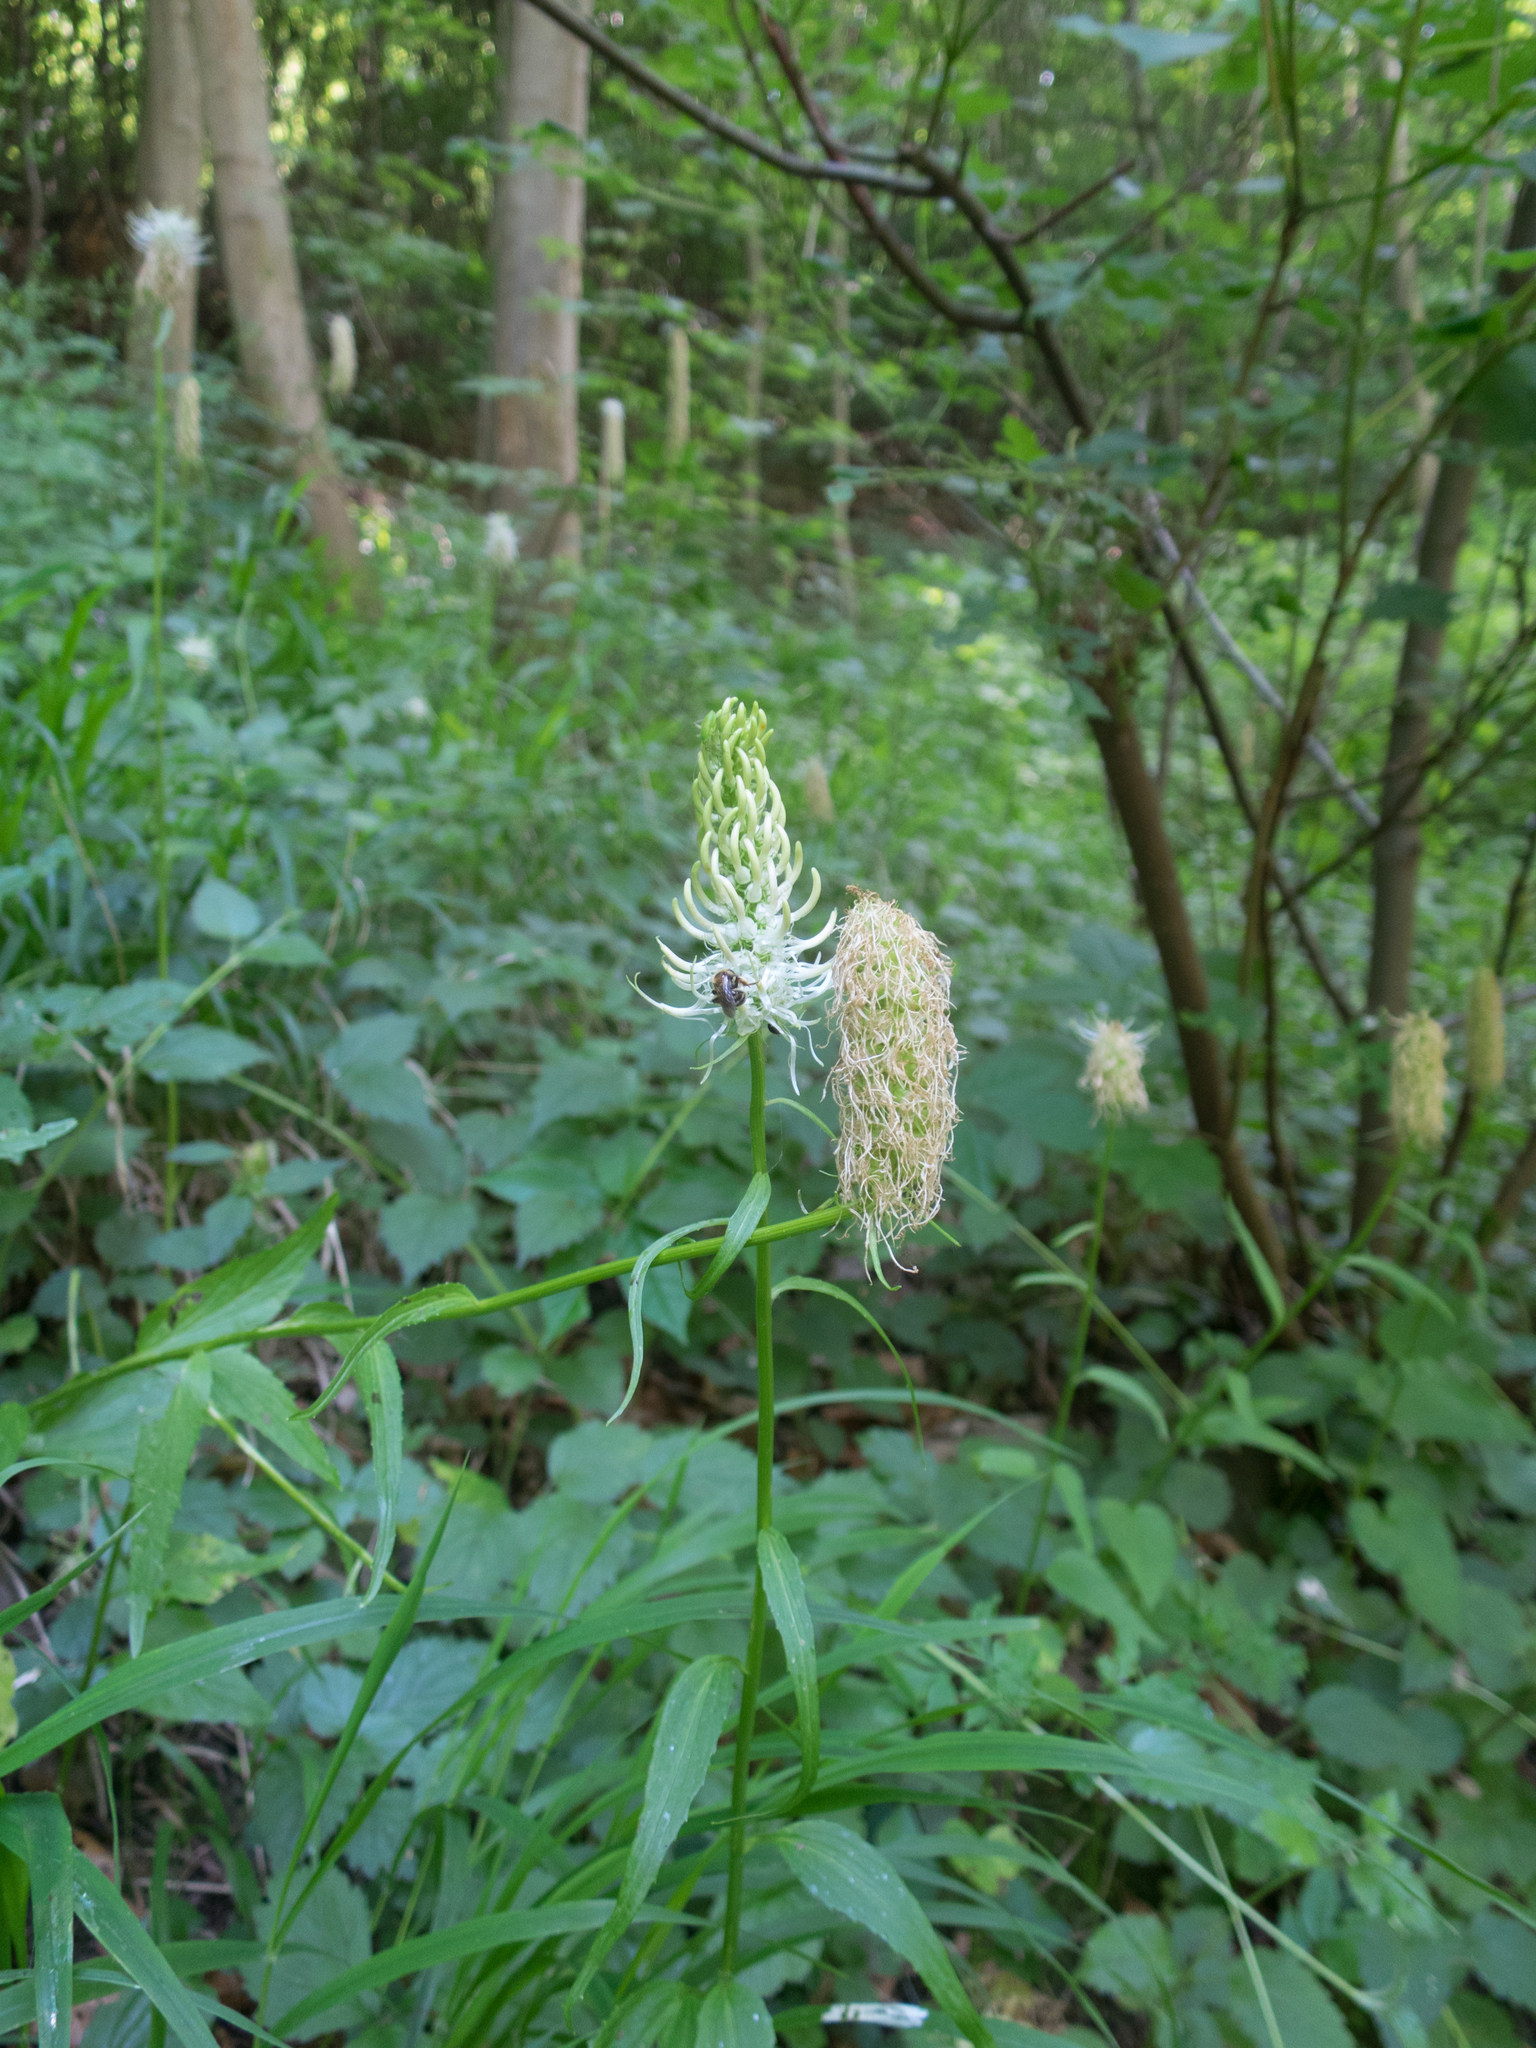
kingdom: Plantae
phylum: Tracheophyta
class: Magnoliopsida
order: Asterales
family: Campanulaceae
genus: Phyteuma
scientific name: Phyteuma spicatum
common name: Spiked rampion
